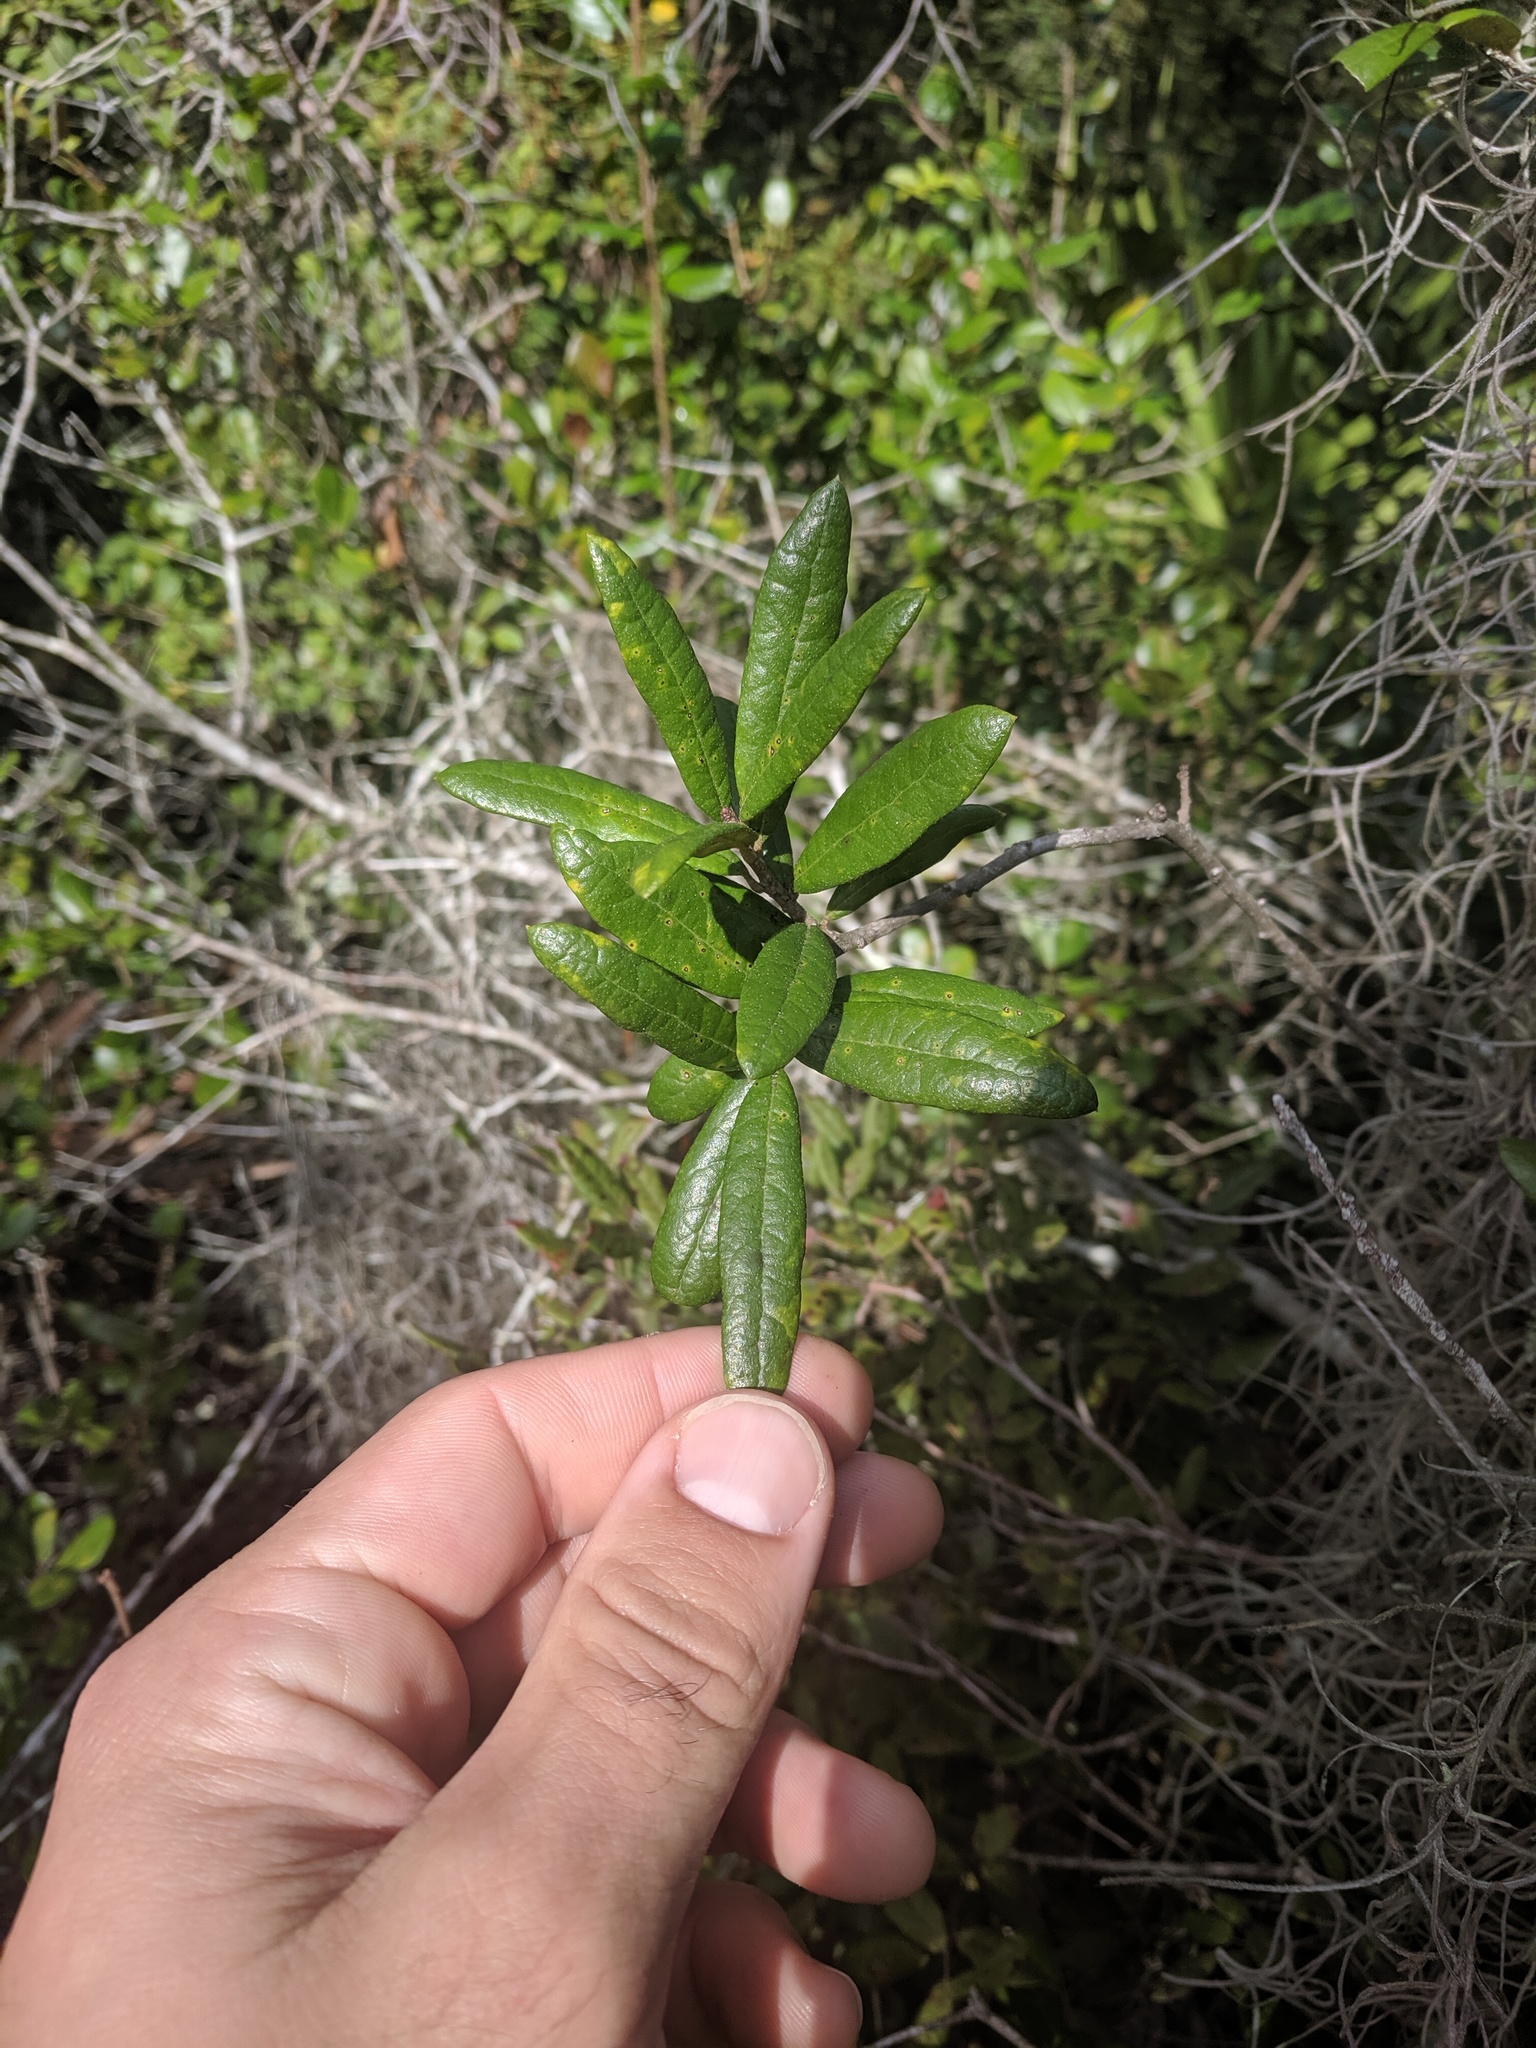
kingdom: Plantae
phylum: Tracheophyta
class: Magnoliopsida
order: Fagales
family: Fagaceae
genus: Quercus
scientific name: Quercus geminata
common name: Sand live oak
